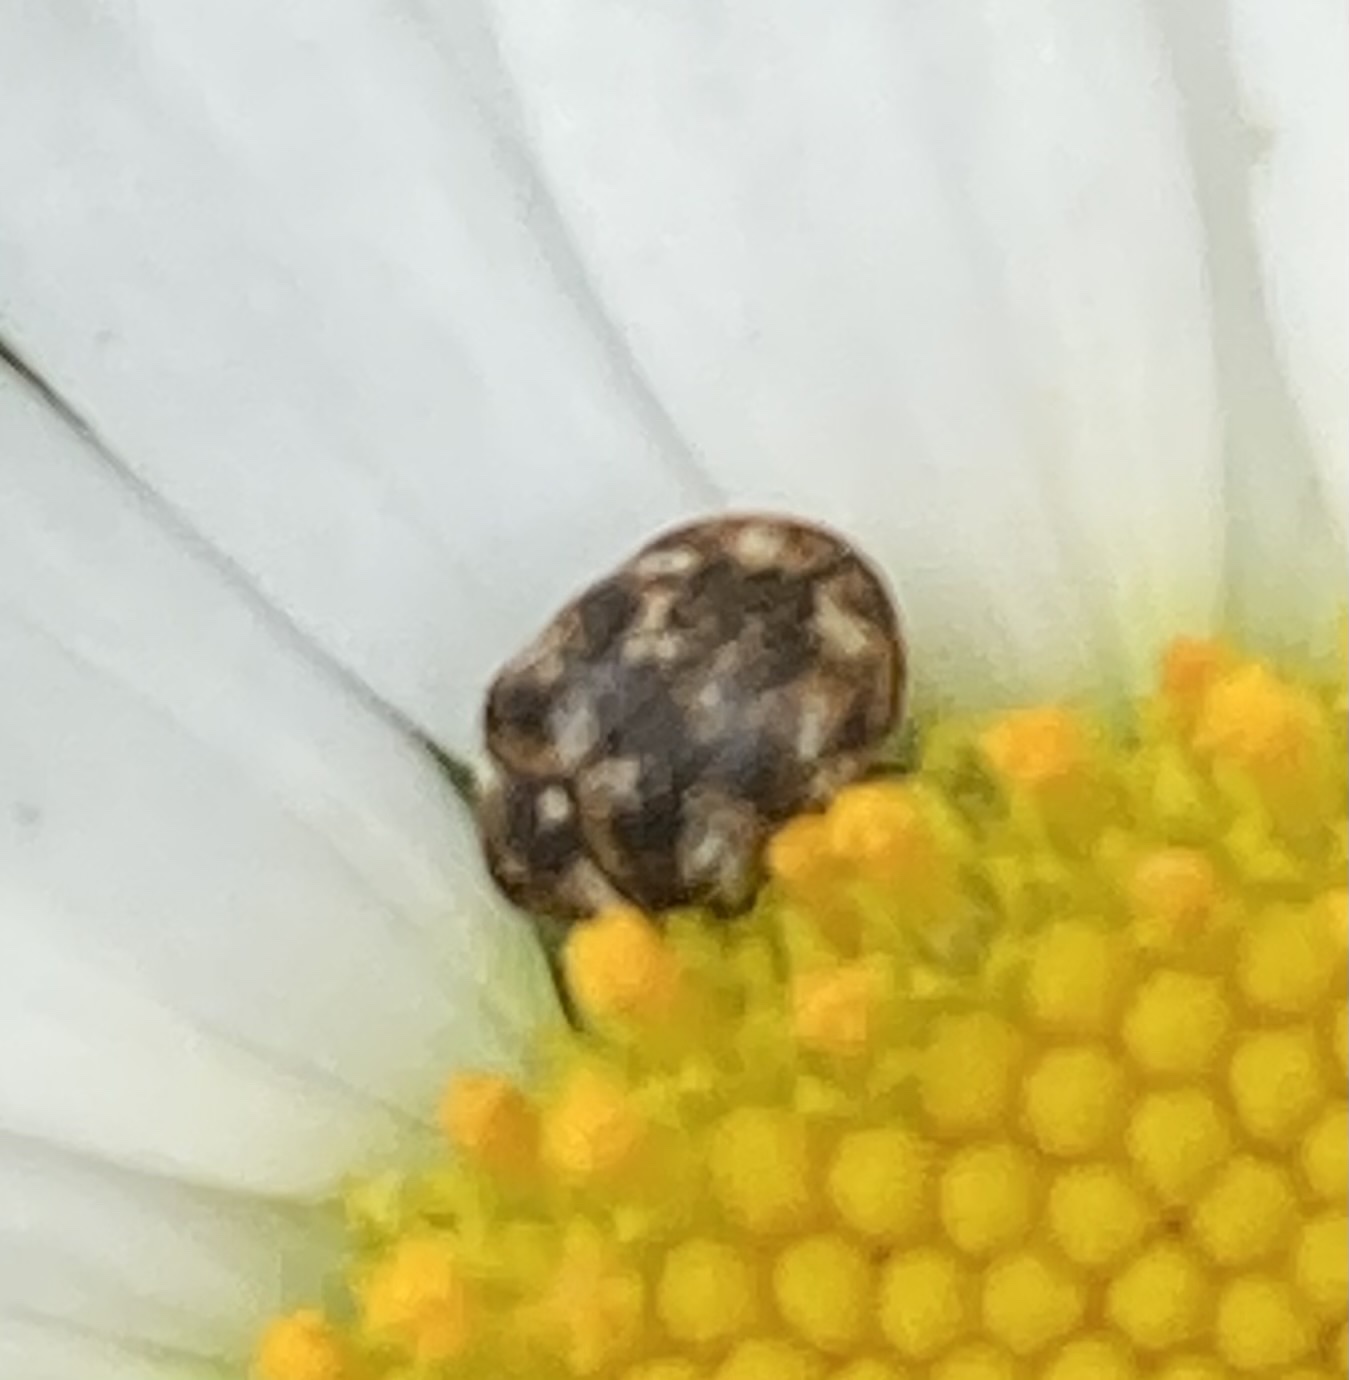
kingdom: Animalia
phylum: Arthropoda
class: Insecta
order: Coleoptera
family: Dermestidae
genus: Anthrenus
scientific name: Anthrenus verbasci
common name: Varied carpet beetle
